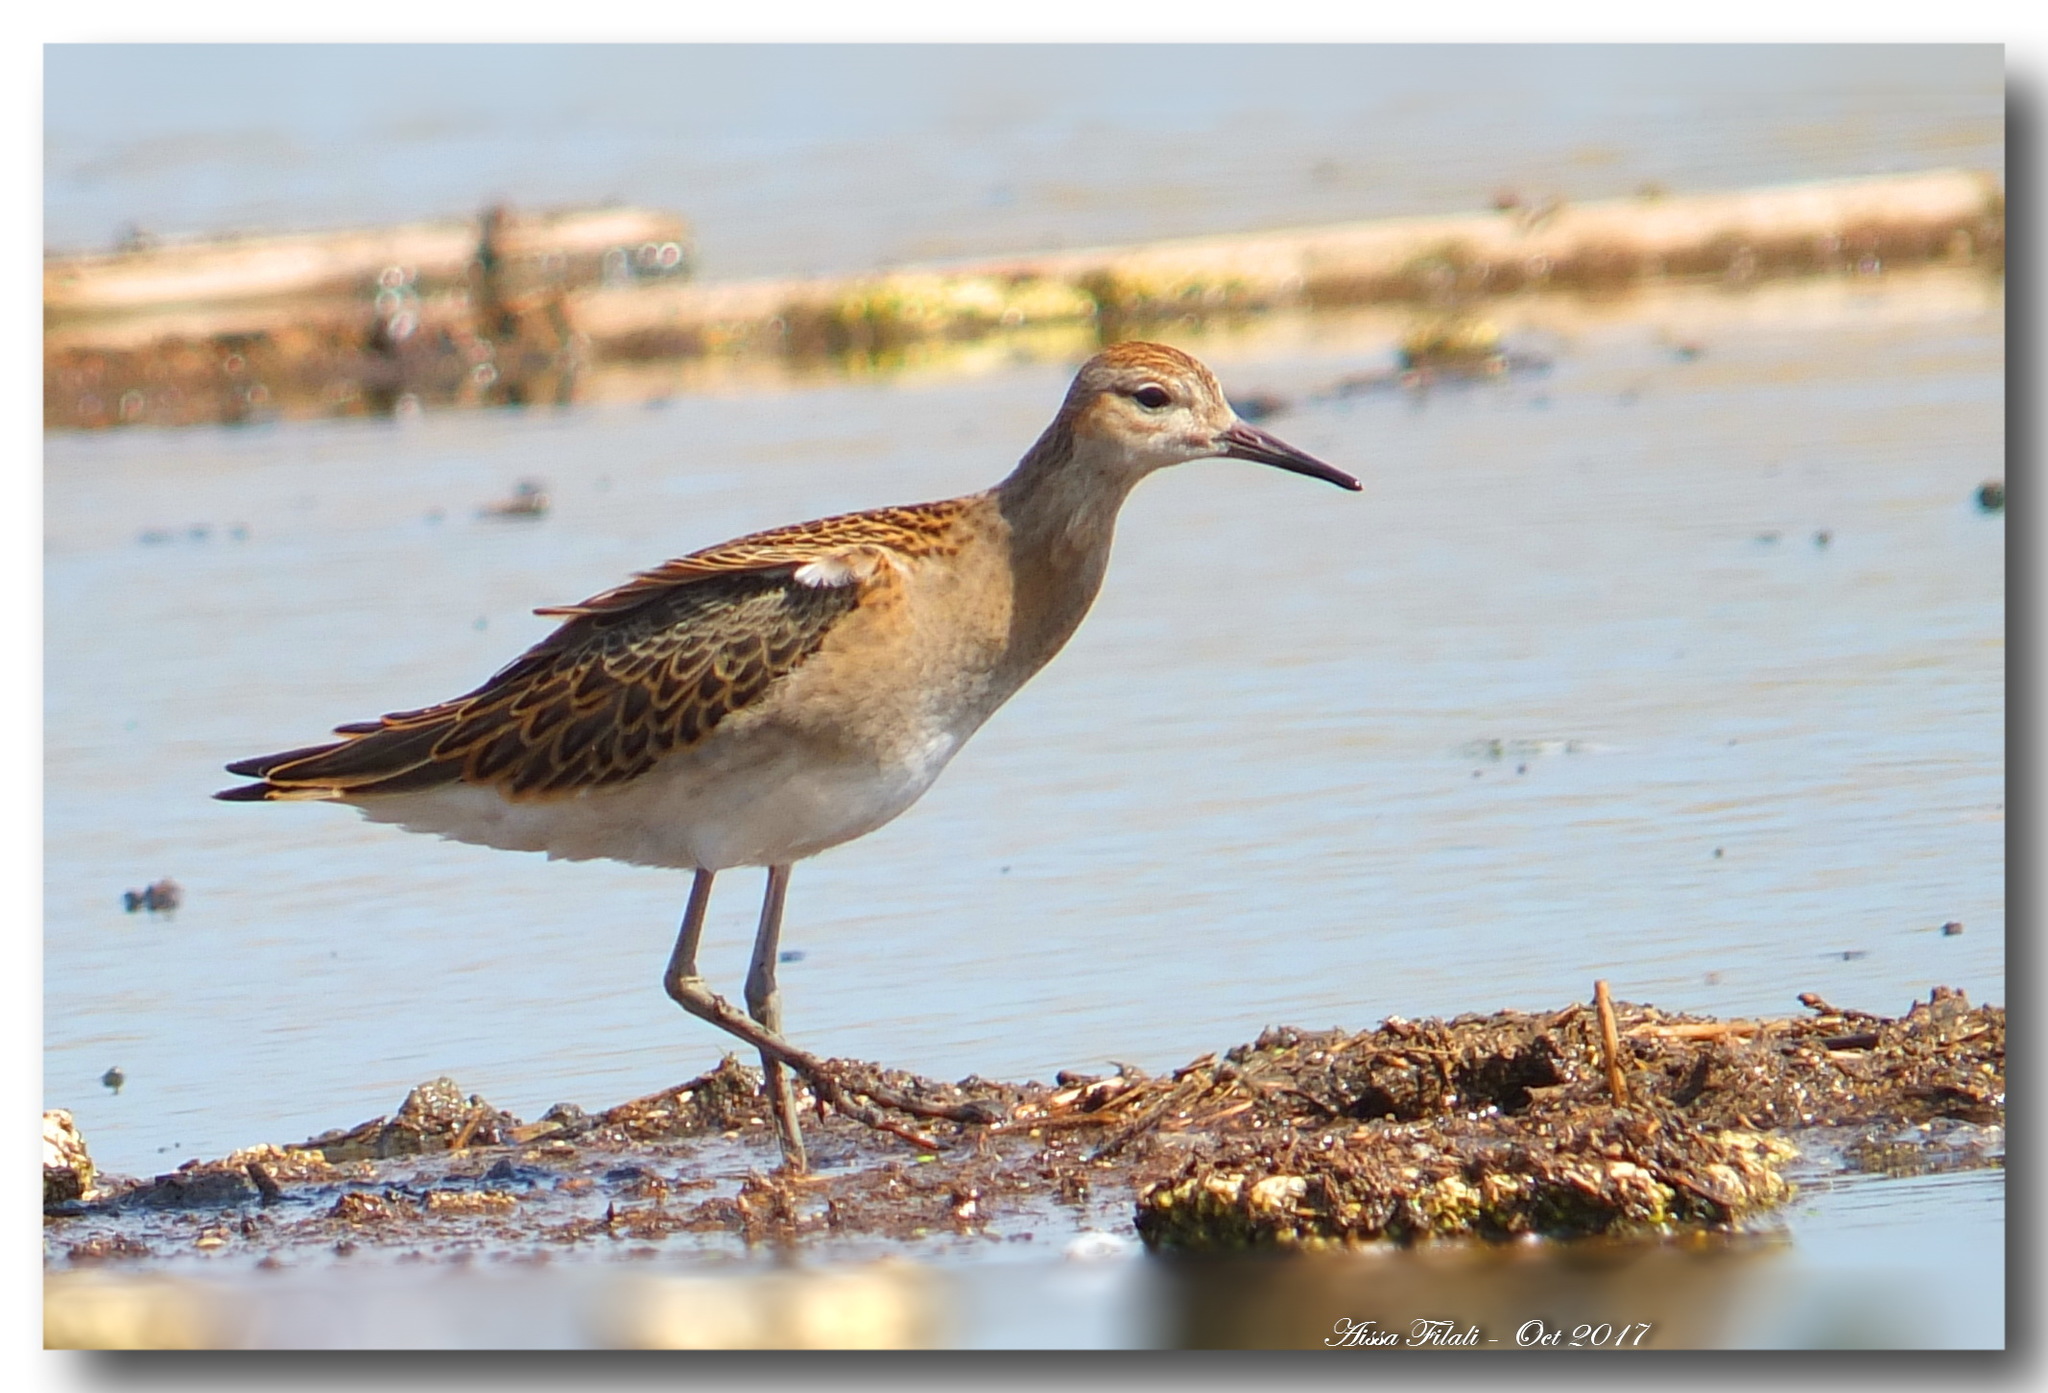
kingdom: Animalia
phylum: Chordata
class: Aves
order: Charadriiformes
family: Scolopacidae
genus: Calidris
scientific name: Calidris pugnax
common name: Ruff
